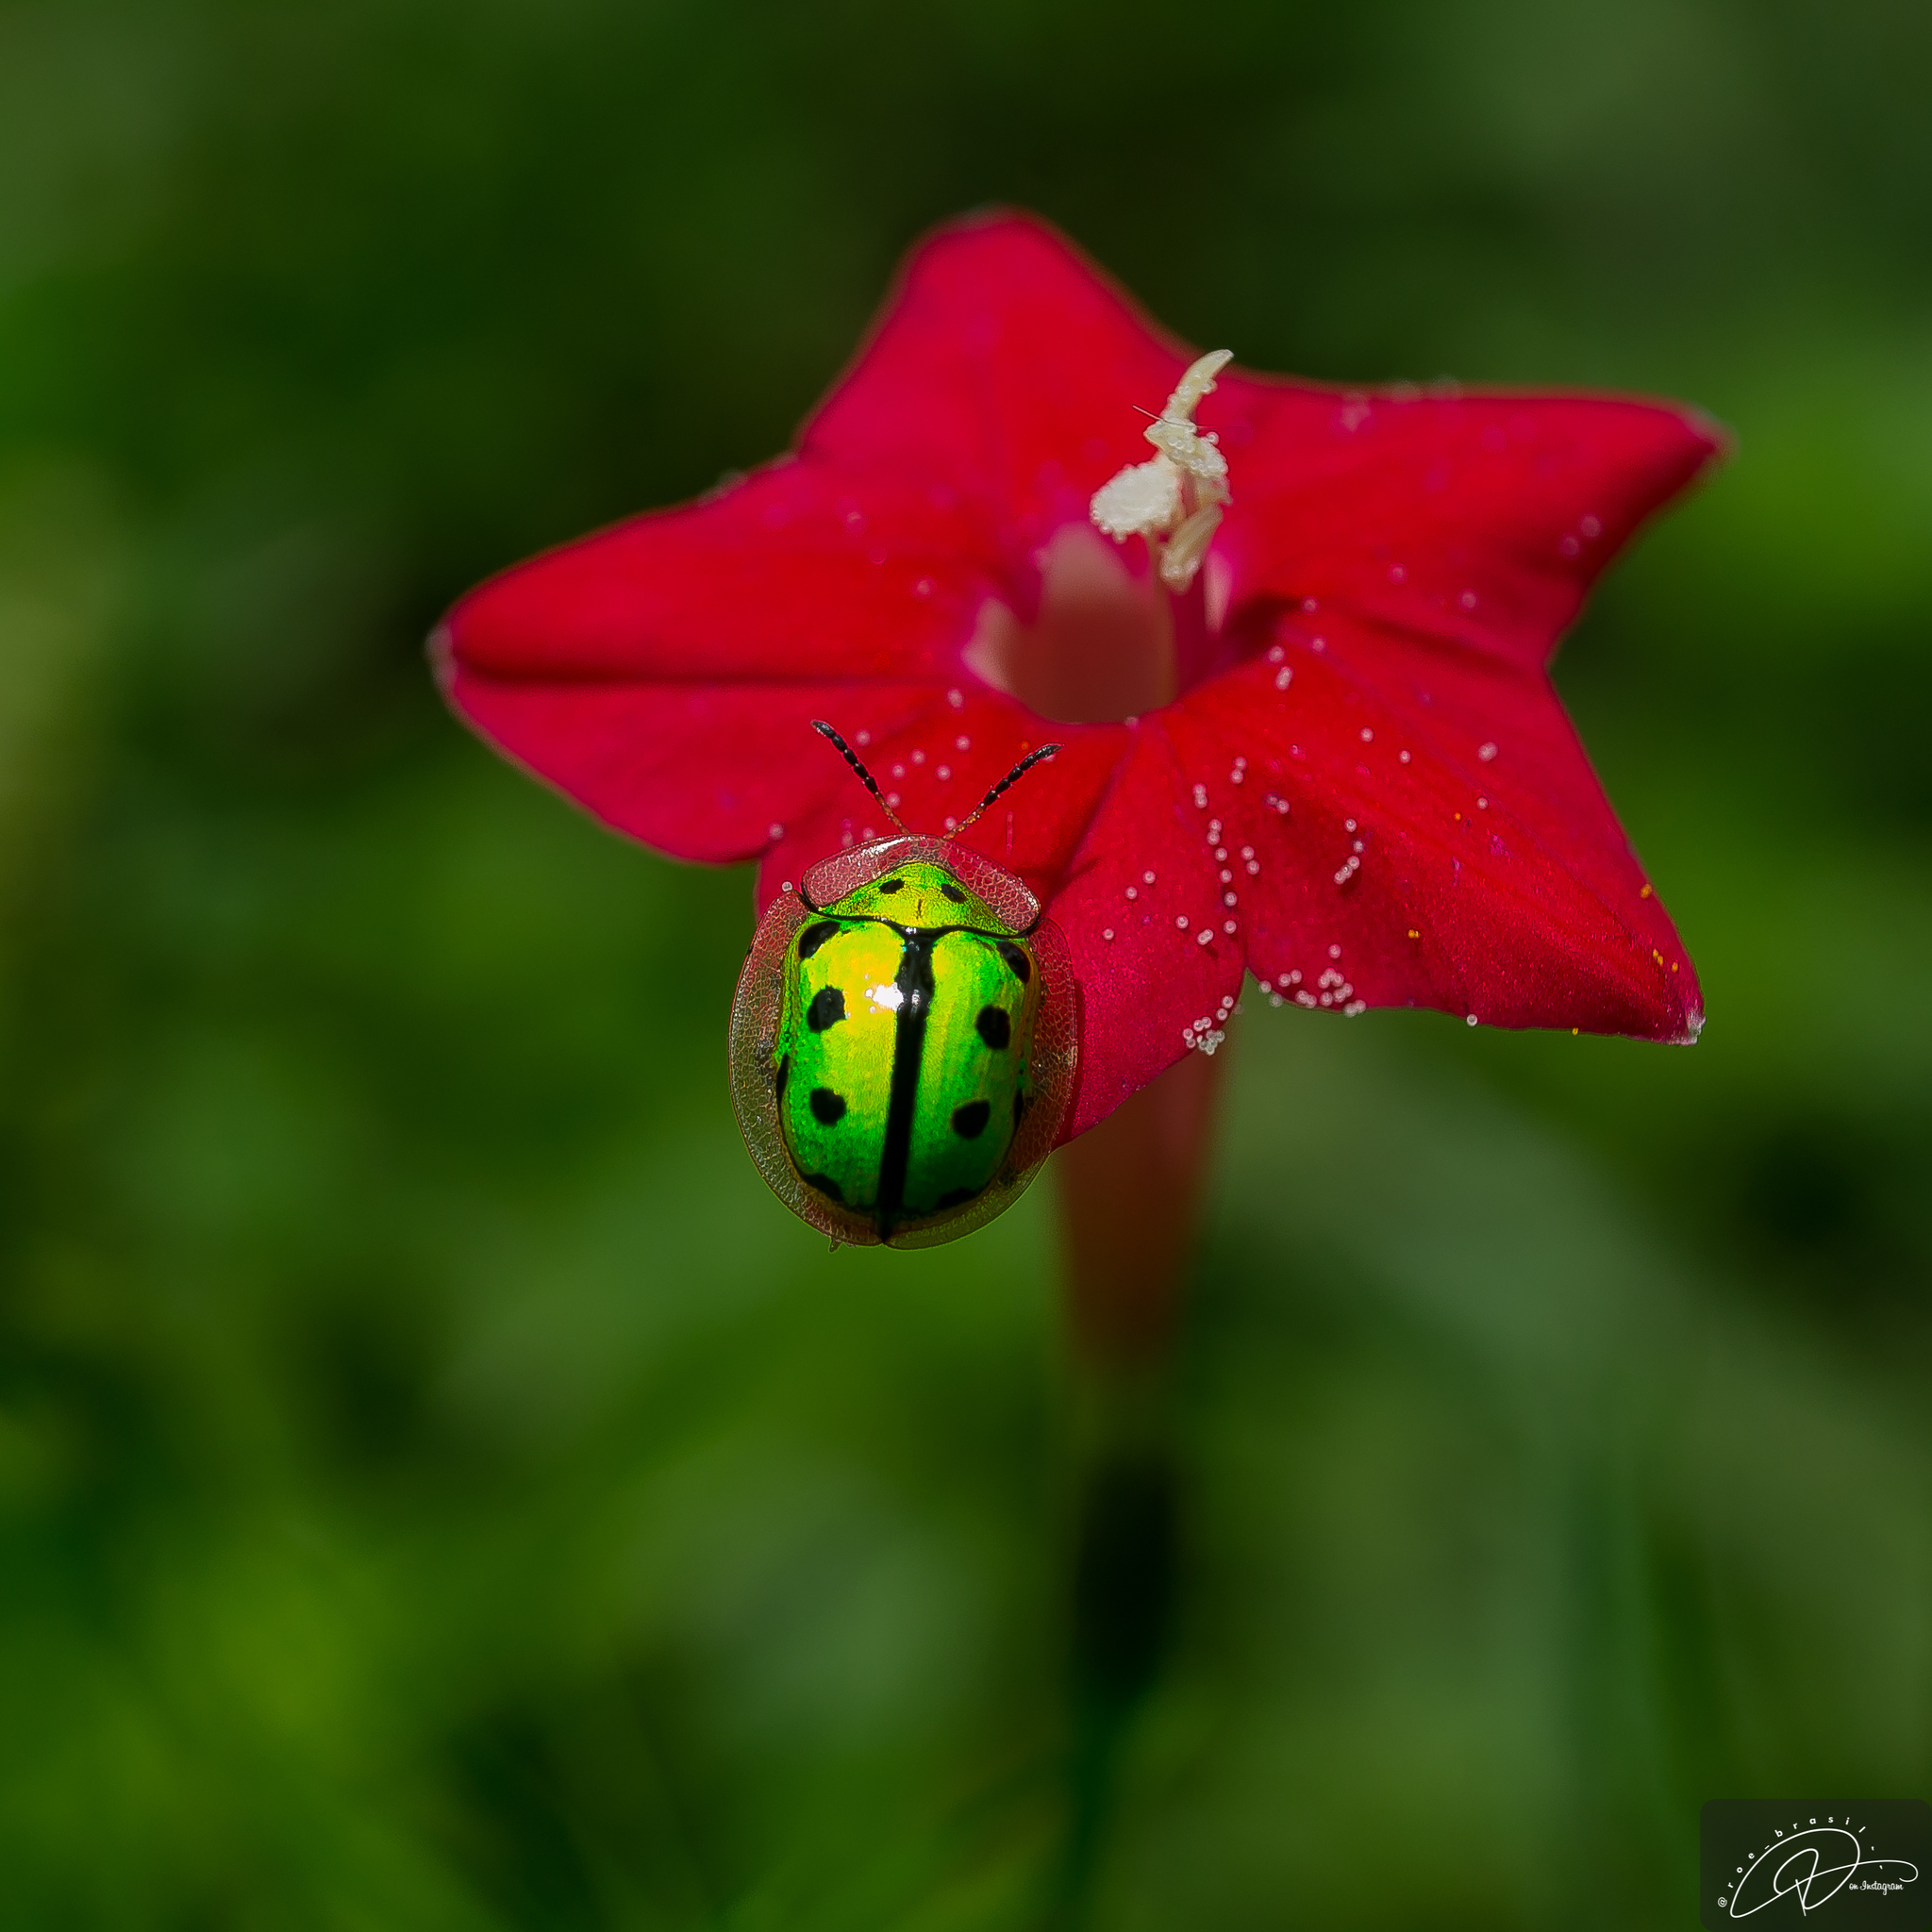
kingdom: Animalia
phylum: Arthropoda
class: Insecta
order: Coleoptera
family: Chrysomelidae
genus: Coptocycla
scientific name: Coptocycla adamantina
